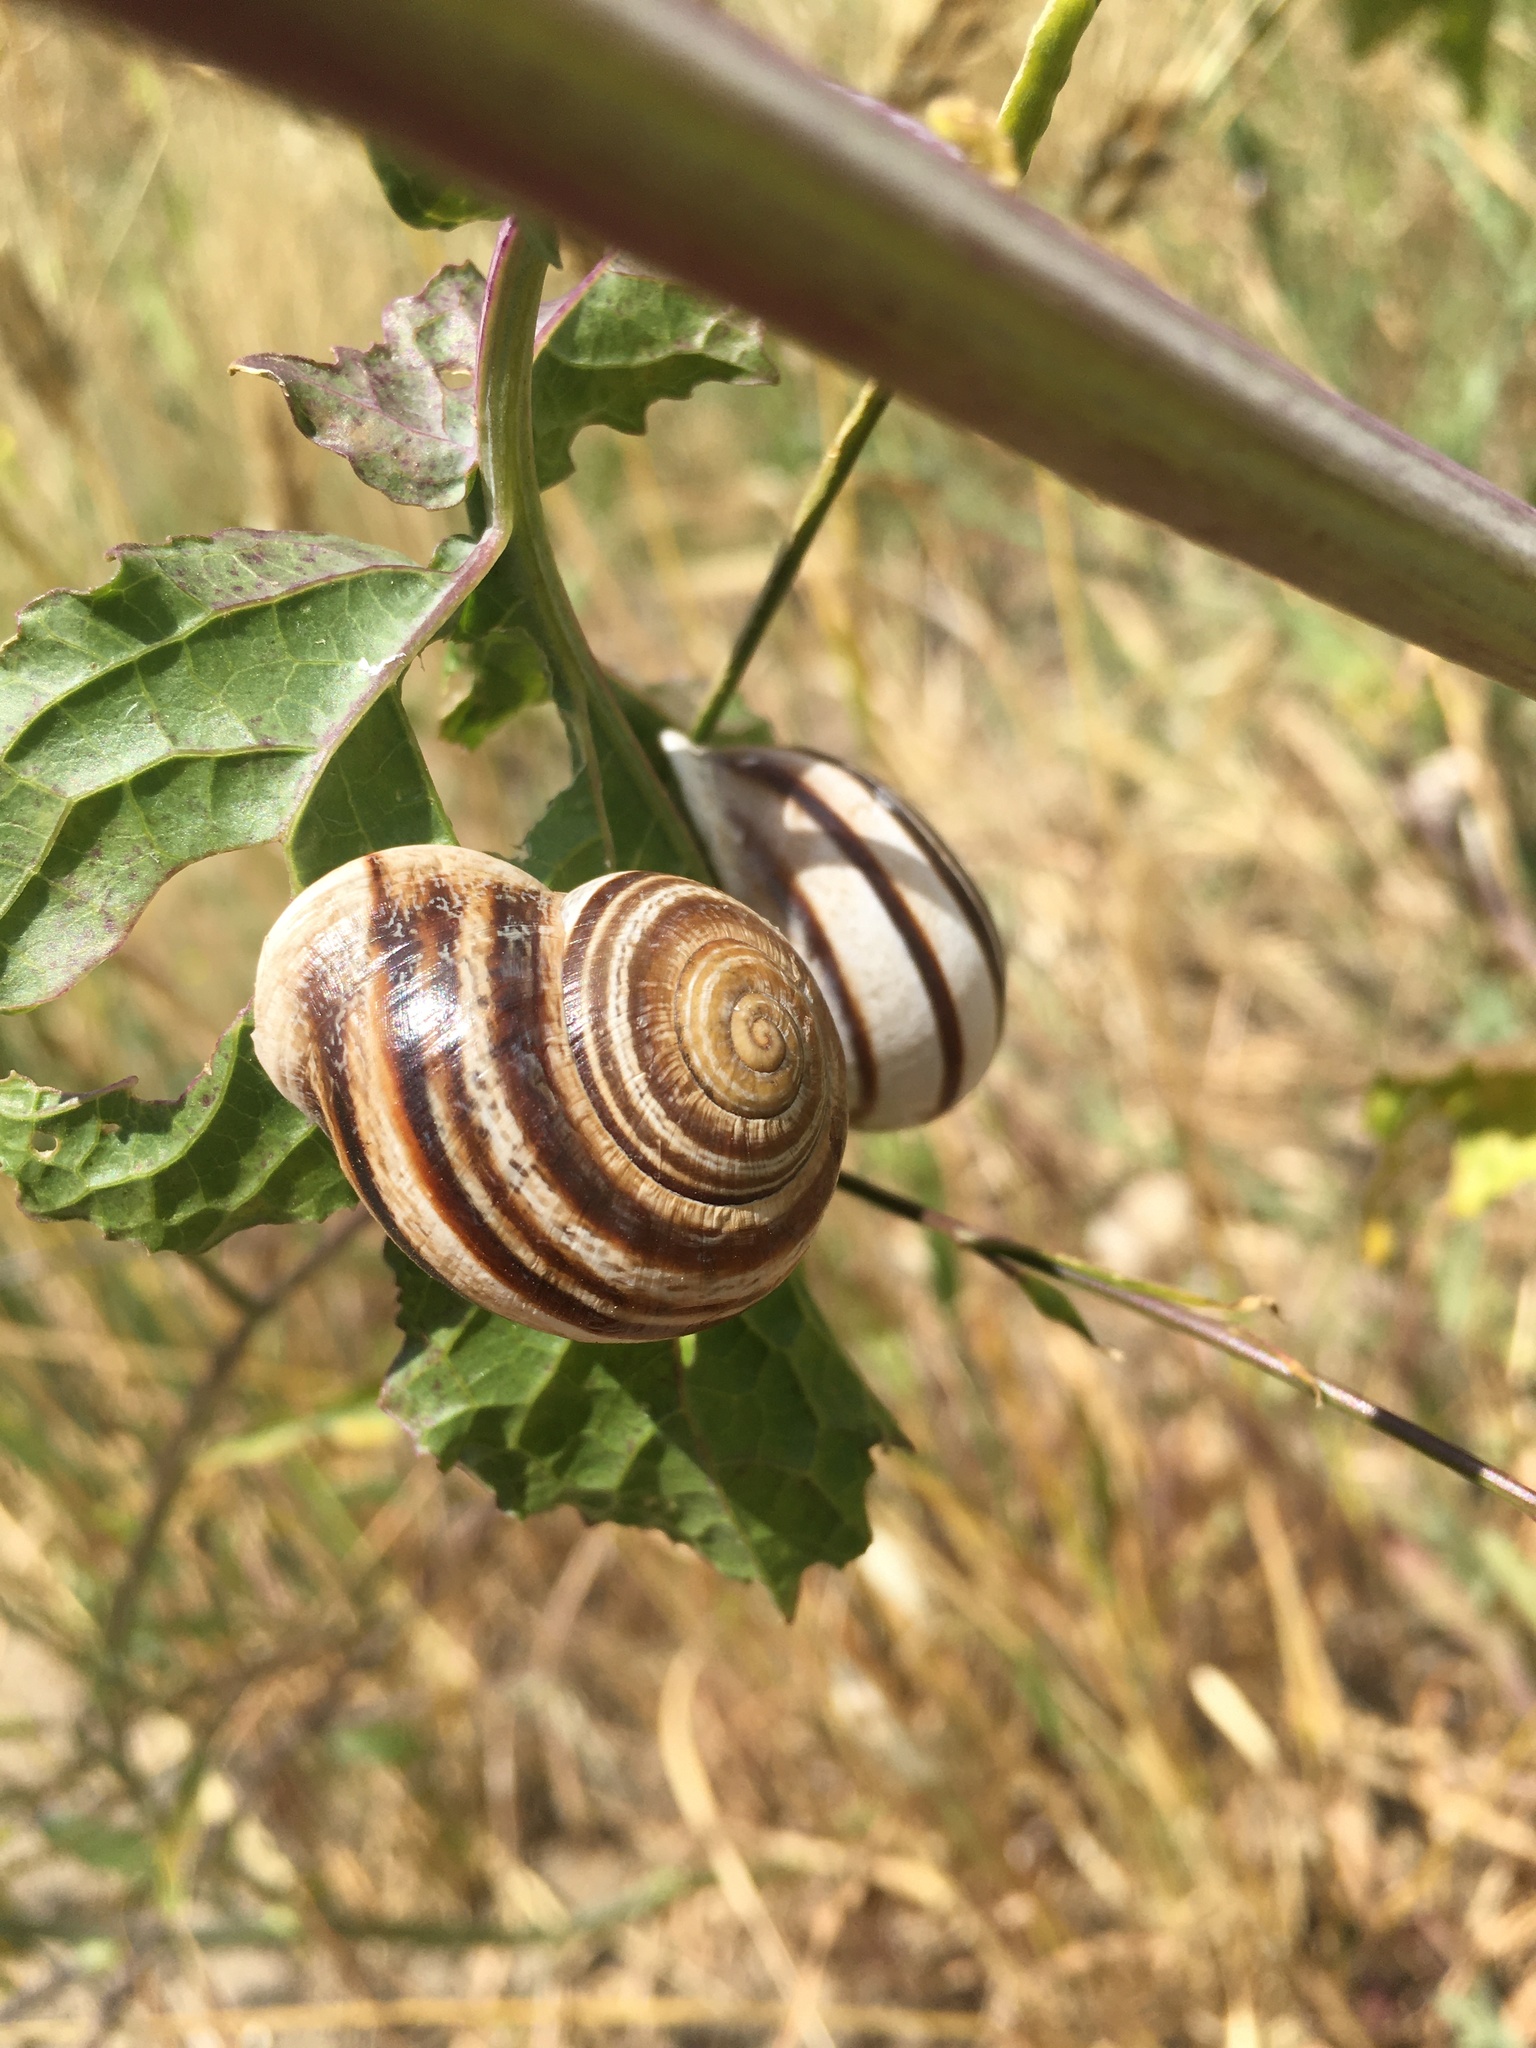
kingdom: Animalia
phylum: Mollusca
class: Gastropoda
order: Stylommatophora
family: Helicidae
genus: Otala
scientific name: Otala lactea
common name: Milk snail
